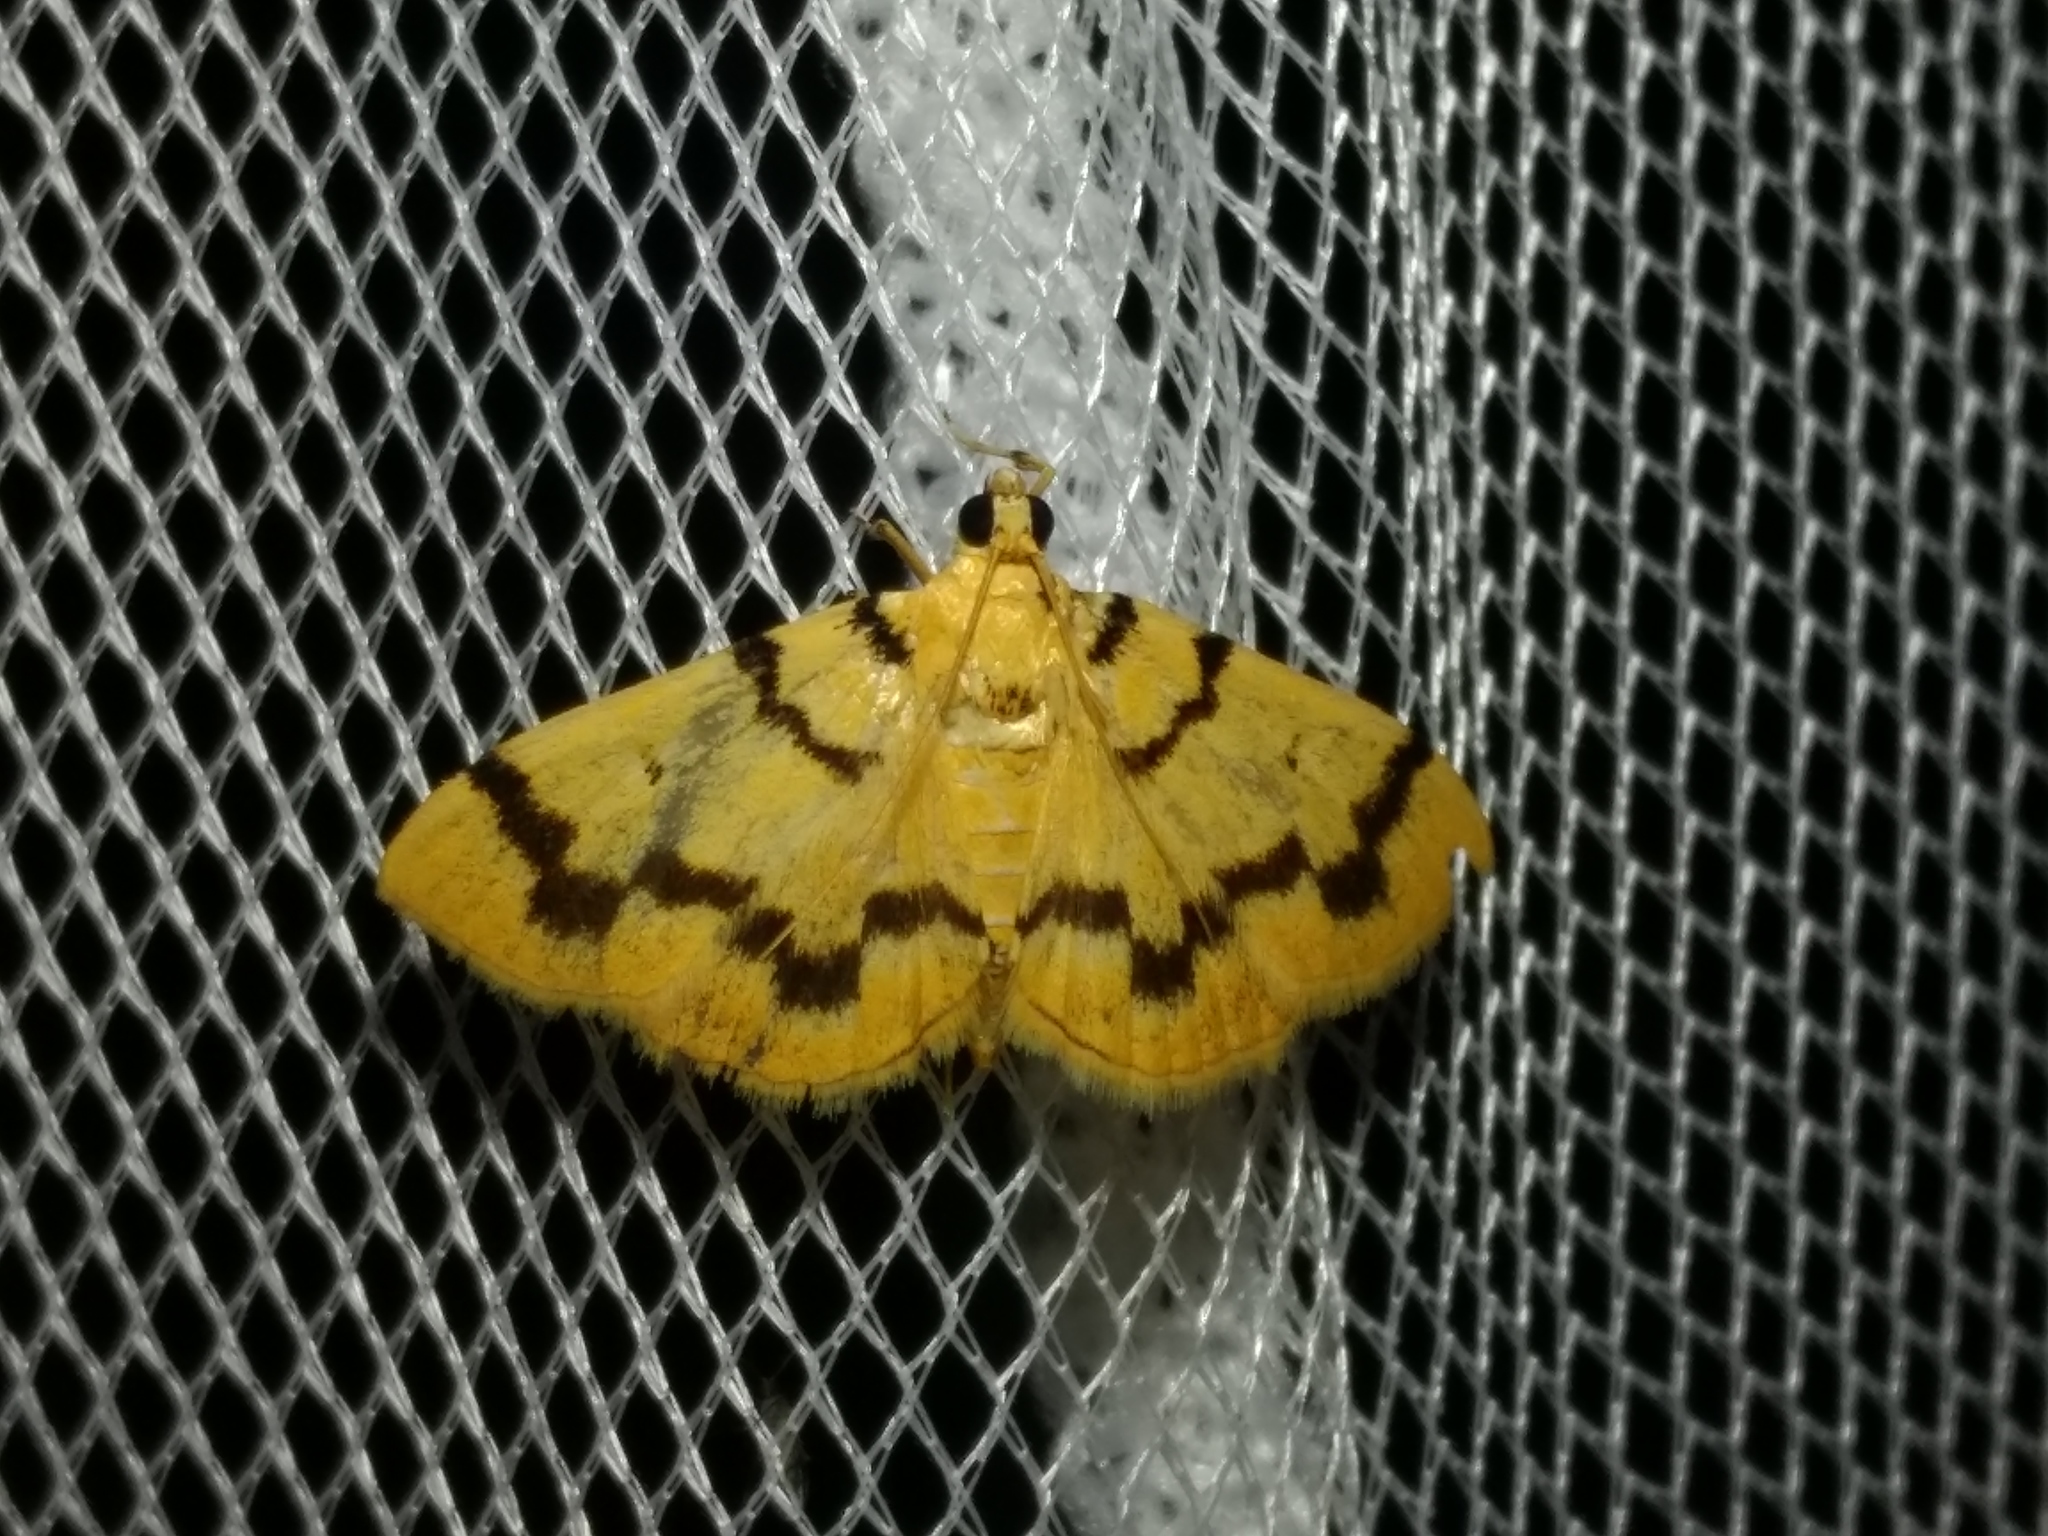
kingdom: Animalia
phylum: Arthropoda
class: Insecta
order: Lepidoptera
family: Crambidae
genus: Dichocrocis
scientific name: Dichocrocis clytusalis
